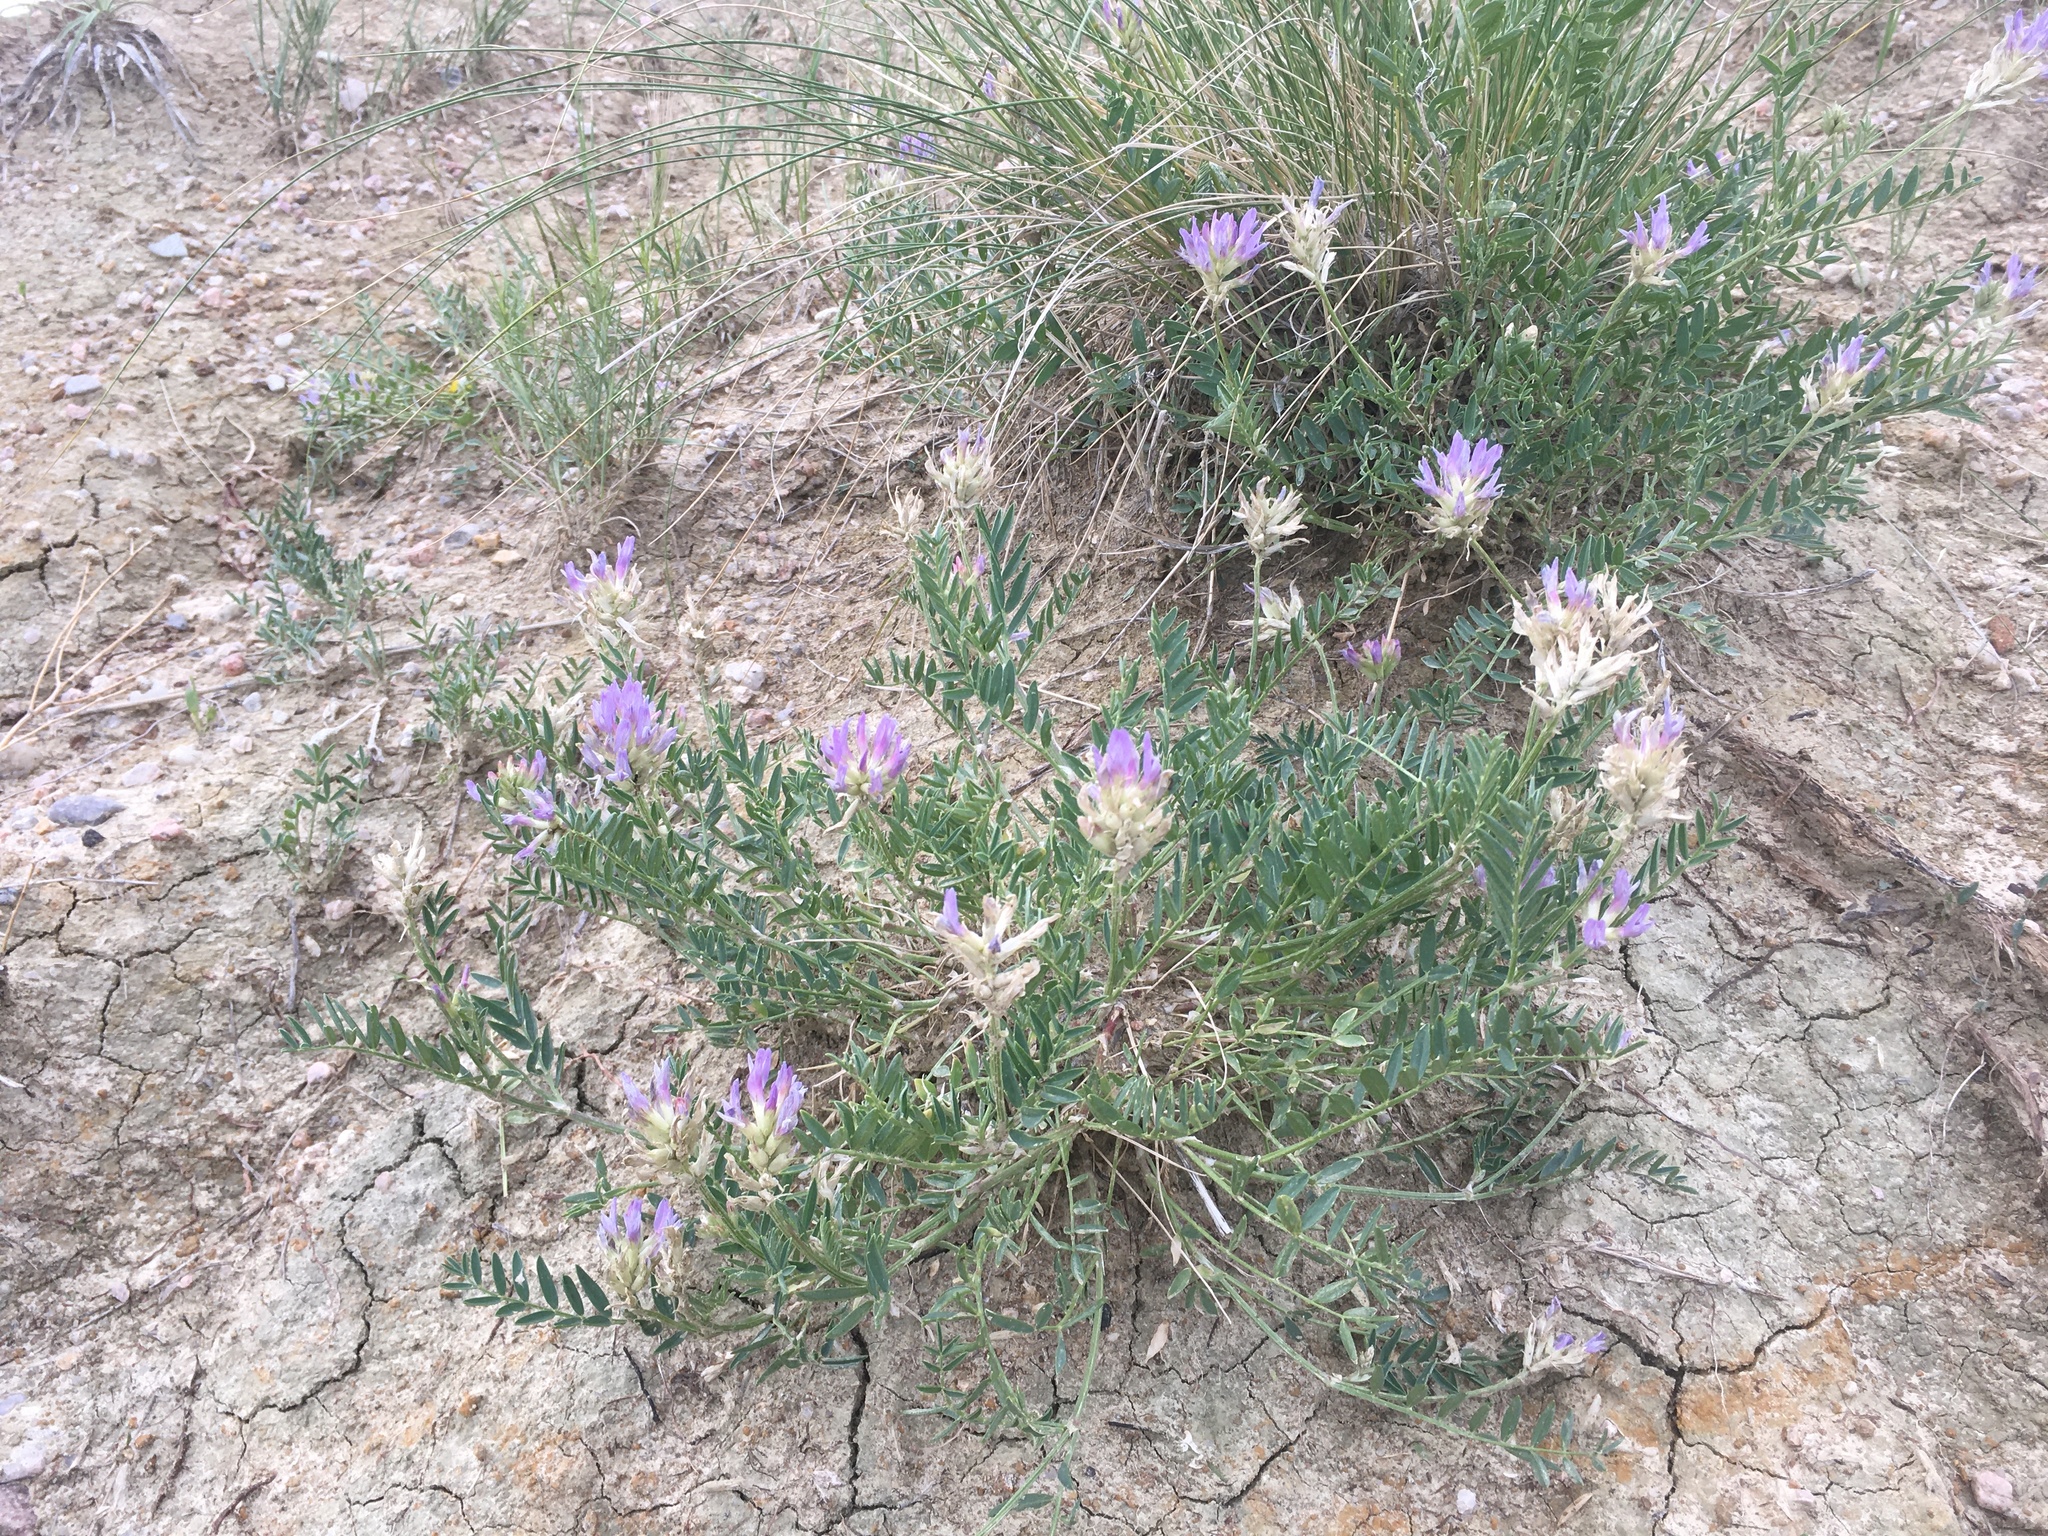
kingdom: Plantae
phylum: Tracheophyta
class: Magnoliopsida
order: Fabales
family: Fabaceae
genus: Astragalus
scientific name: Astragalus laxmannii
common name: Laxmann's milk-vetch
